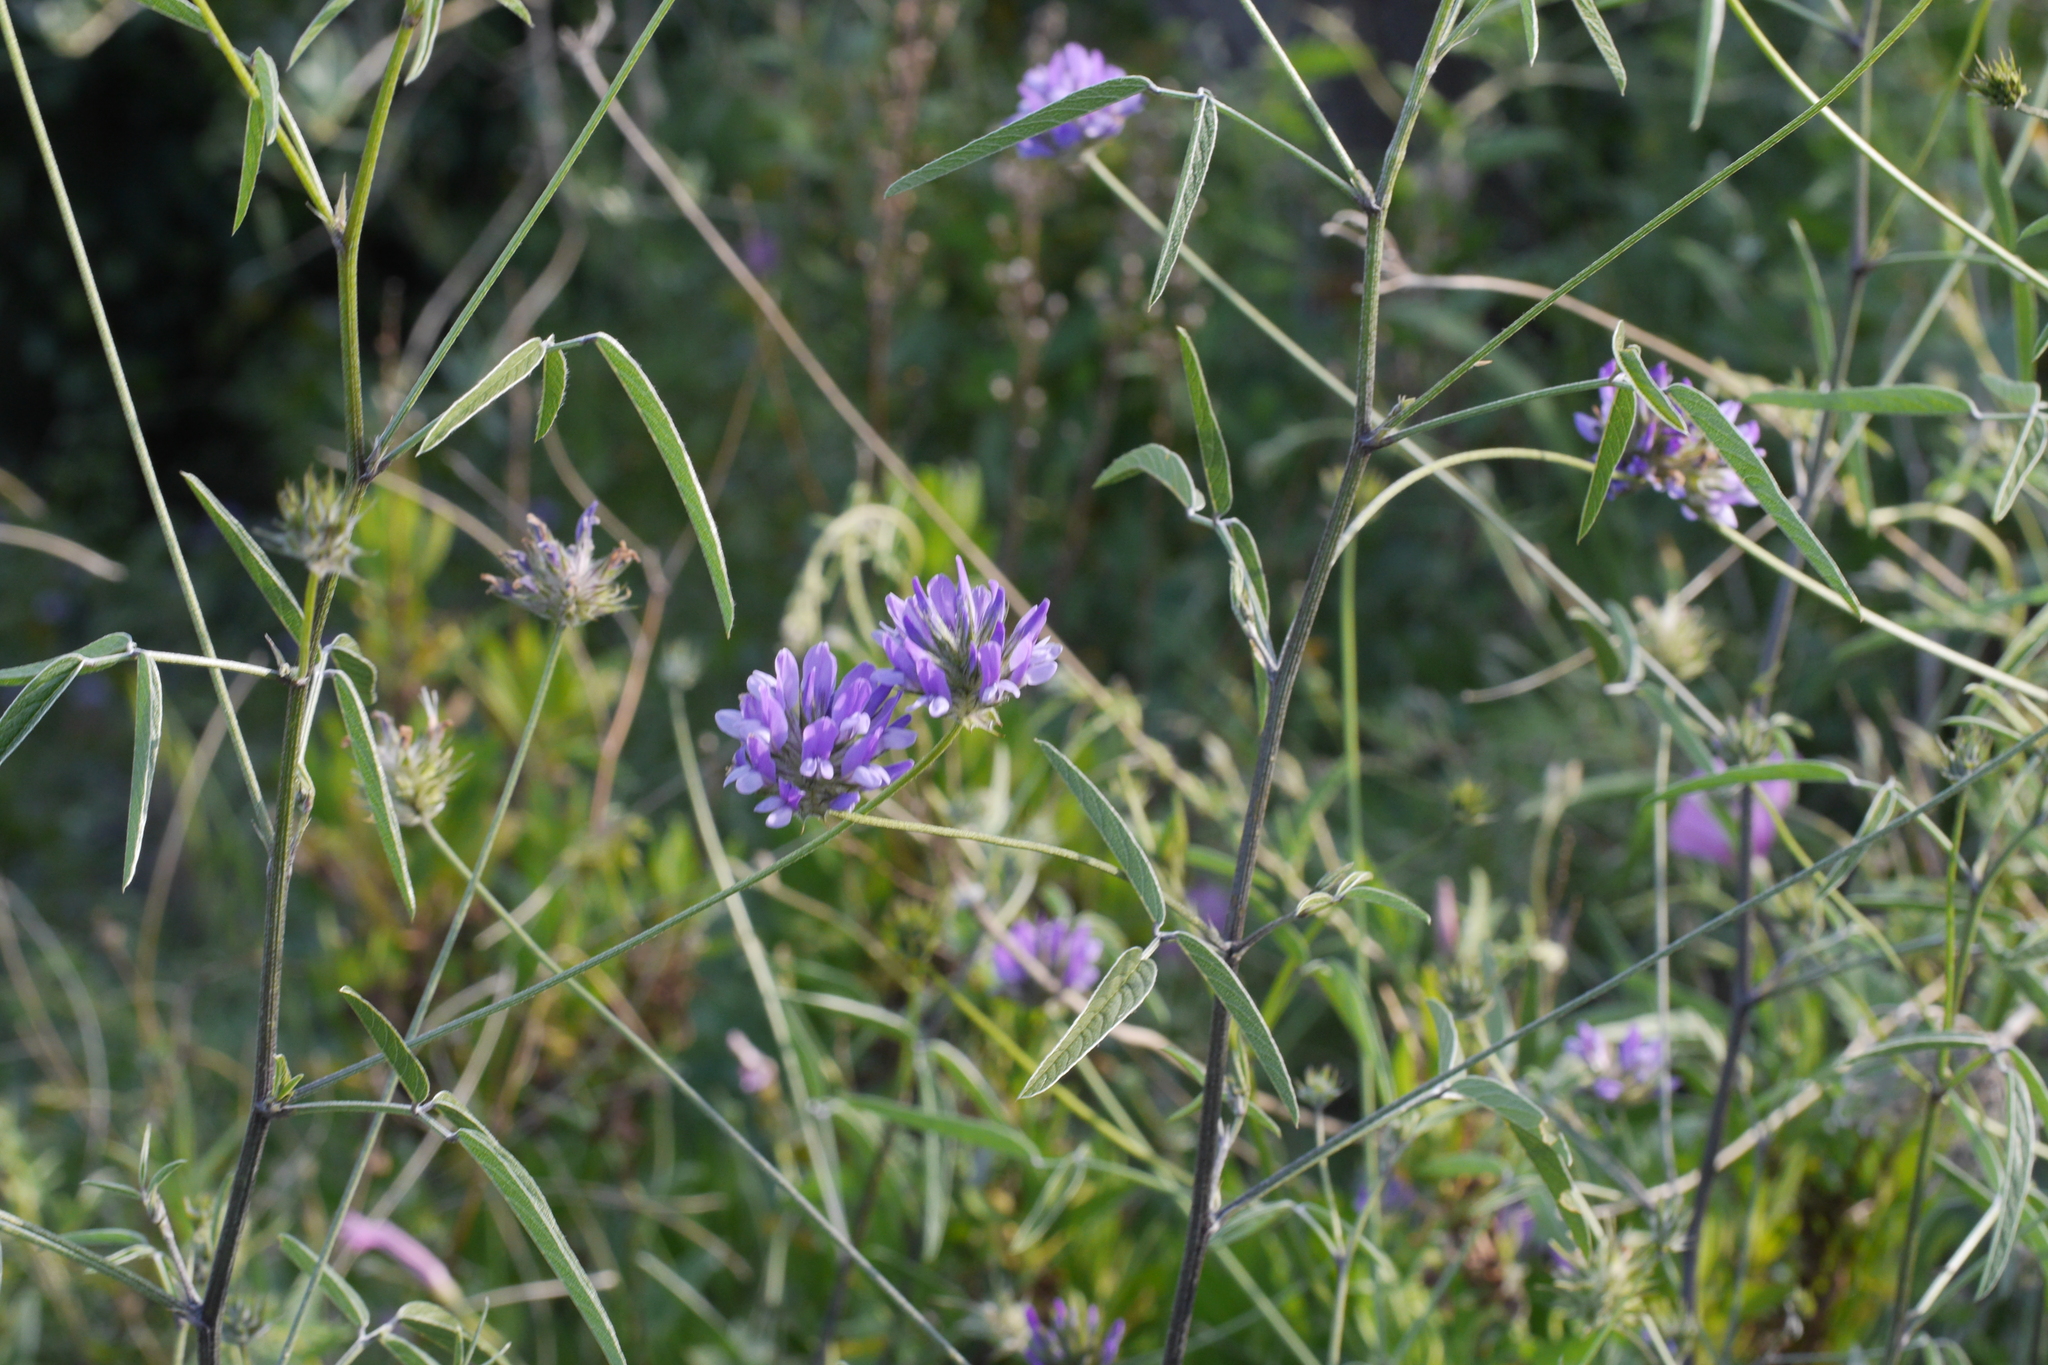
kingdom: Plantae
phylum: Tracheophyta
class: Magnoliopsida
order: Fabales
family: Fabaceae
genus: Bituminaria
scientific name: Bituminaria bituminosa
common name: Arabian pea
